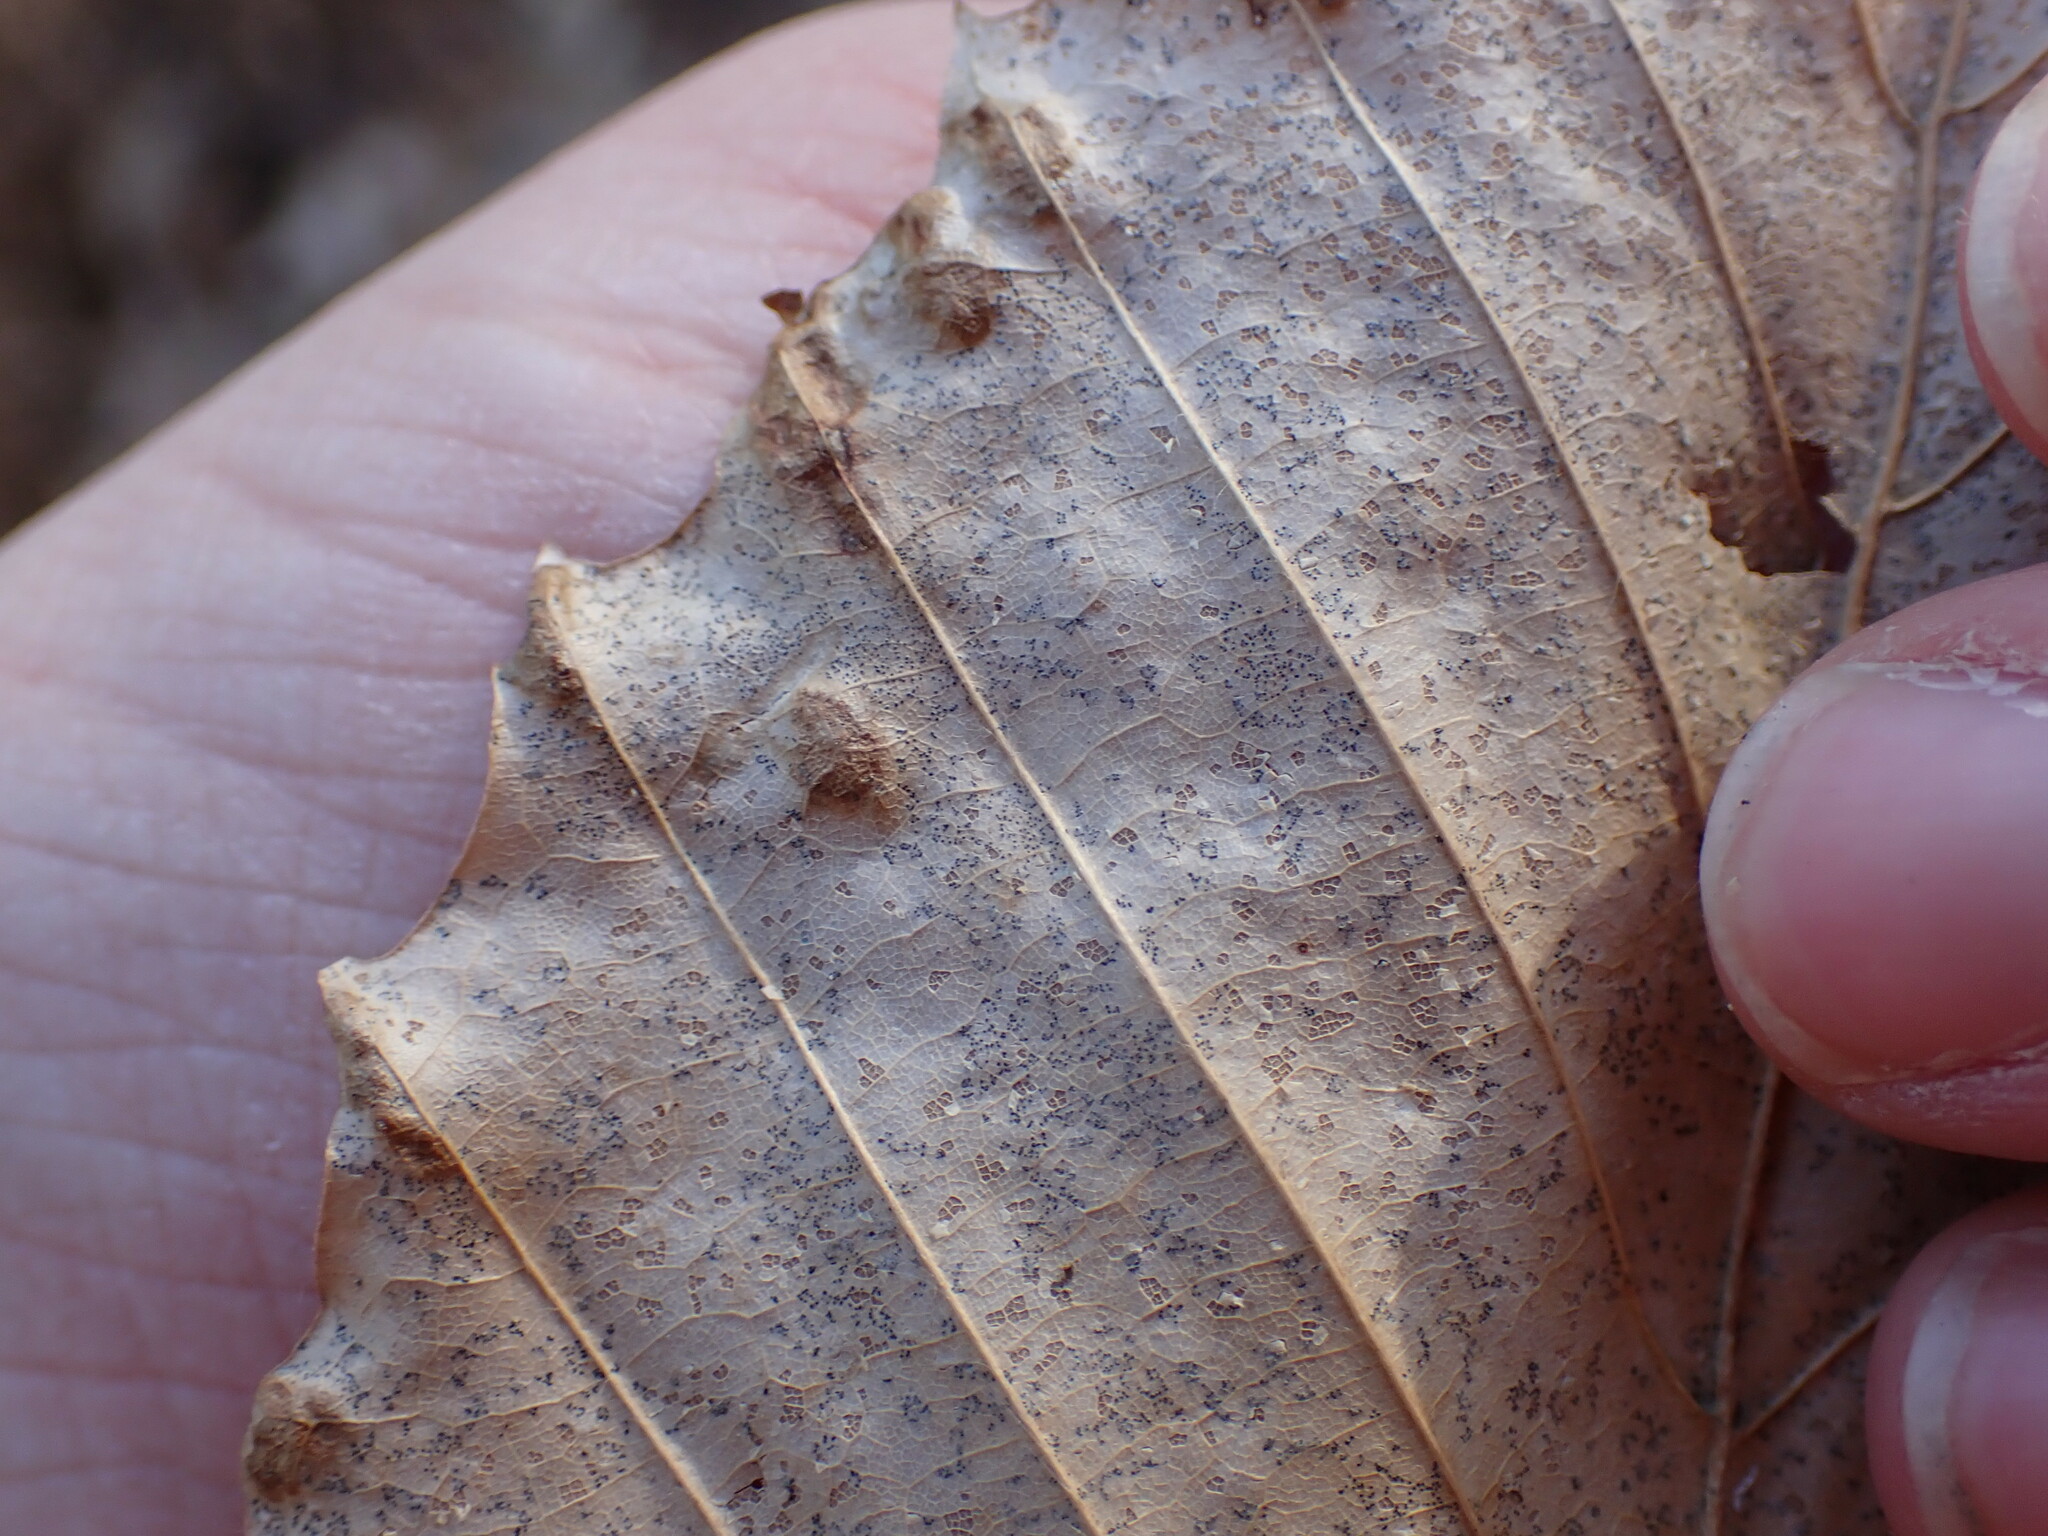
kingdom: Animalia
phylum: Arthropoda
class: Arachnida
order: Trombidiformes
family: Eriophyidae
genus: Acalitus
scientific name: Acalitus
